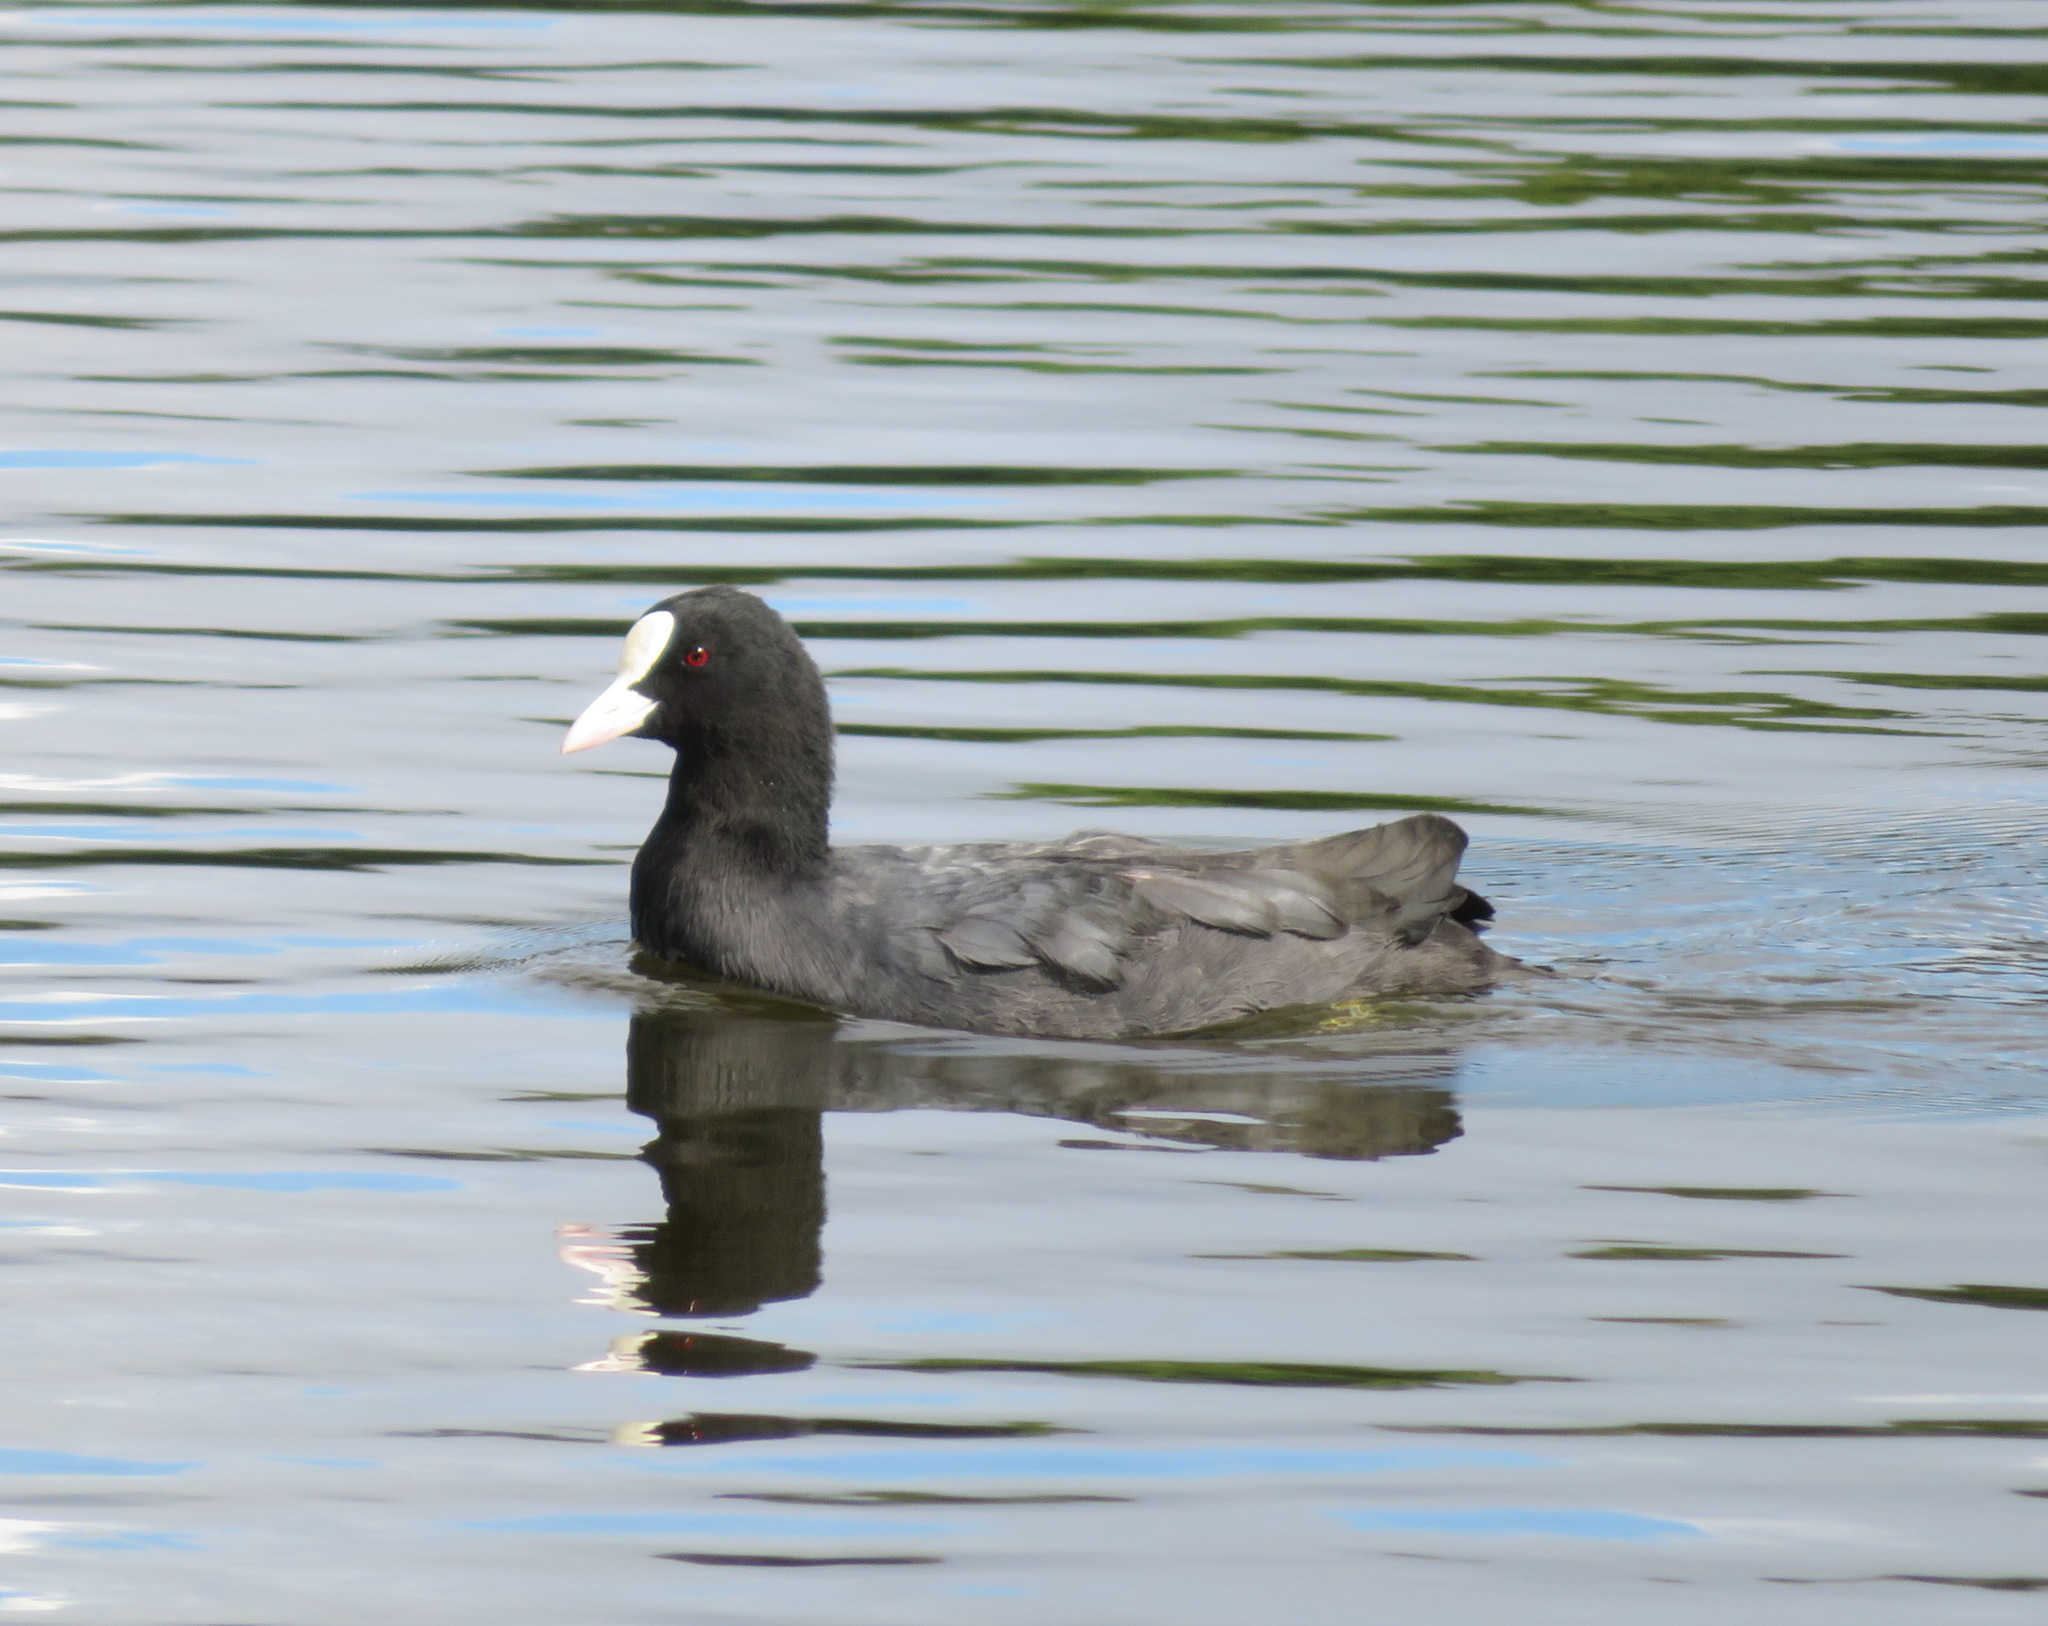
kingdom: Animalia
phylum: Chordata
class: Aves
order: Gruiformes
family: Rallidae
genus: Fulica
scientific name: Fulica atra
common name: Eurasian coot
